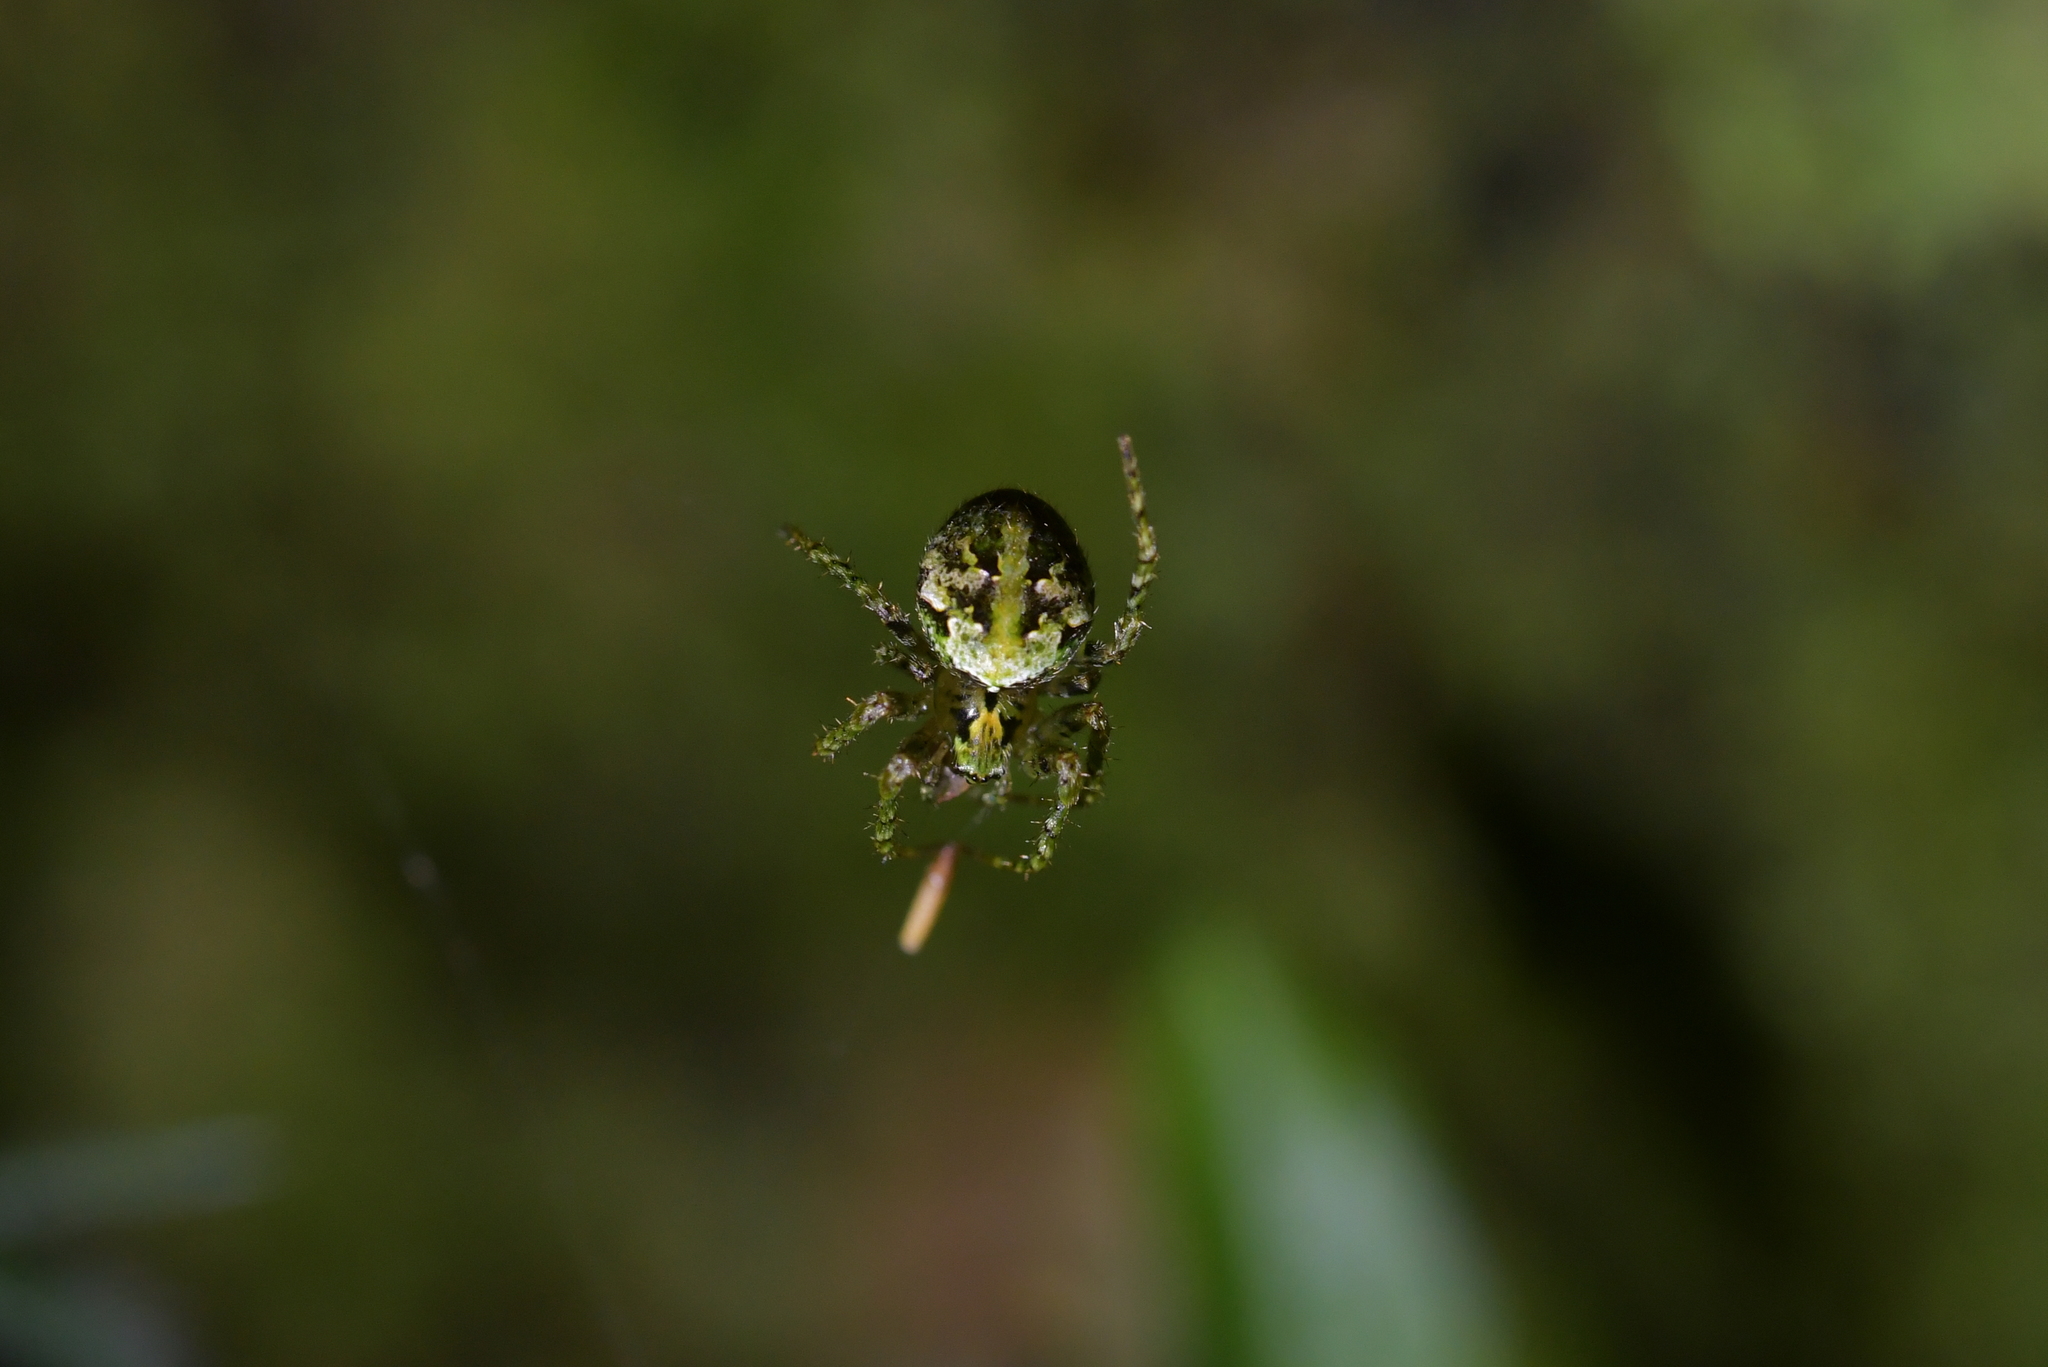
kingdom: Animalia
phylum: Arthropoda
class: Arachnida
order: Araneae
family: Araneidae
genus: Cryptaranea
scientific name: Cryptaranea atrihastula
